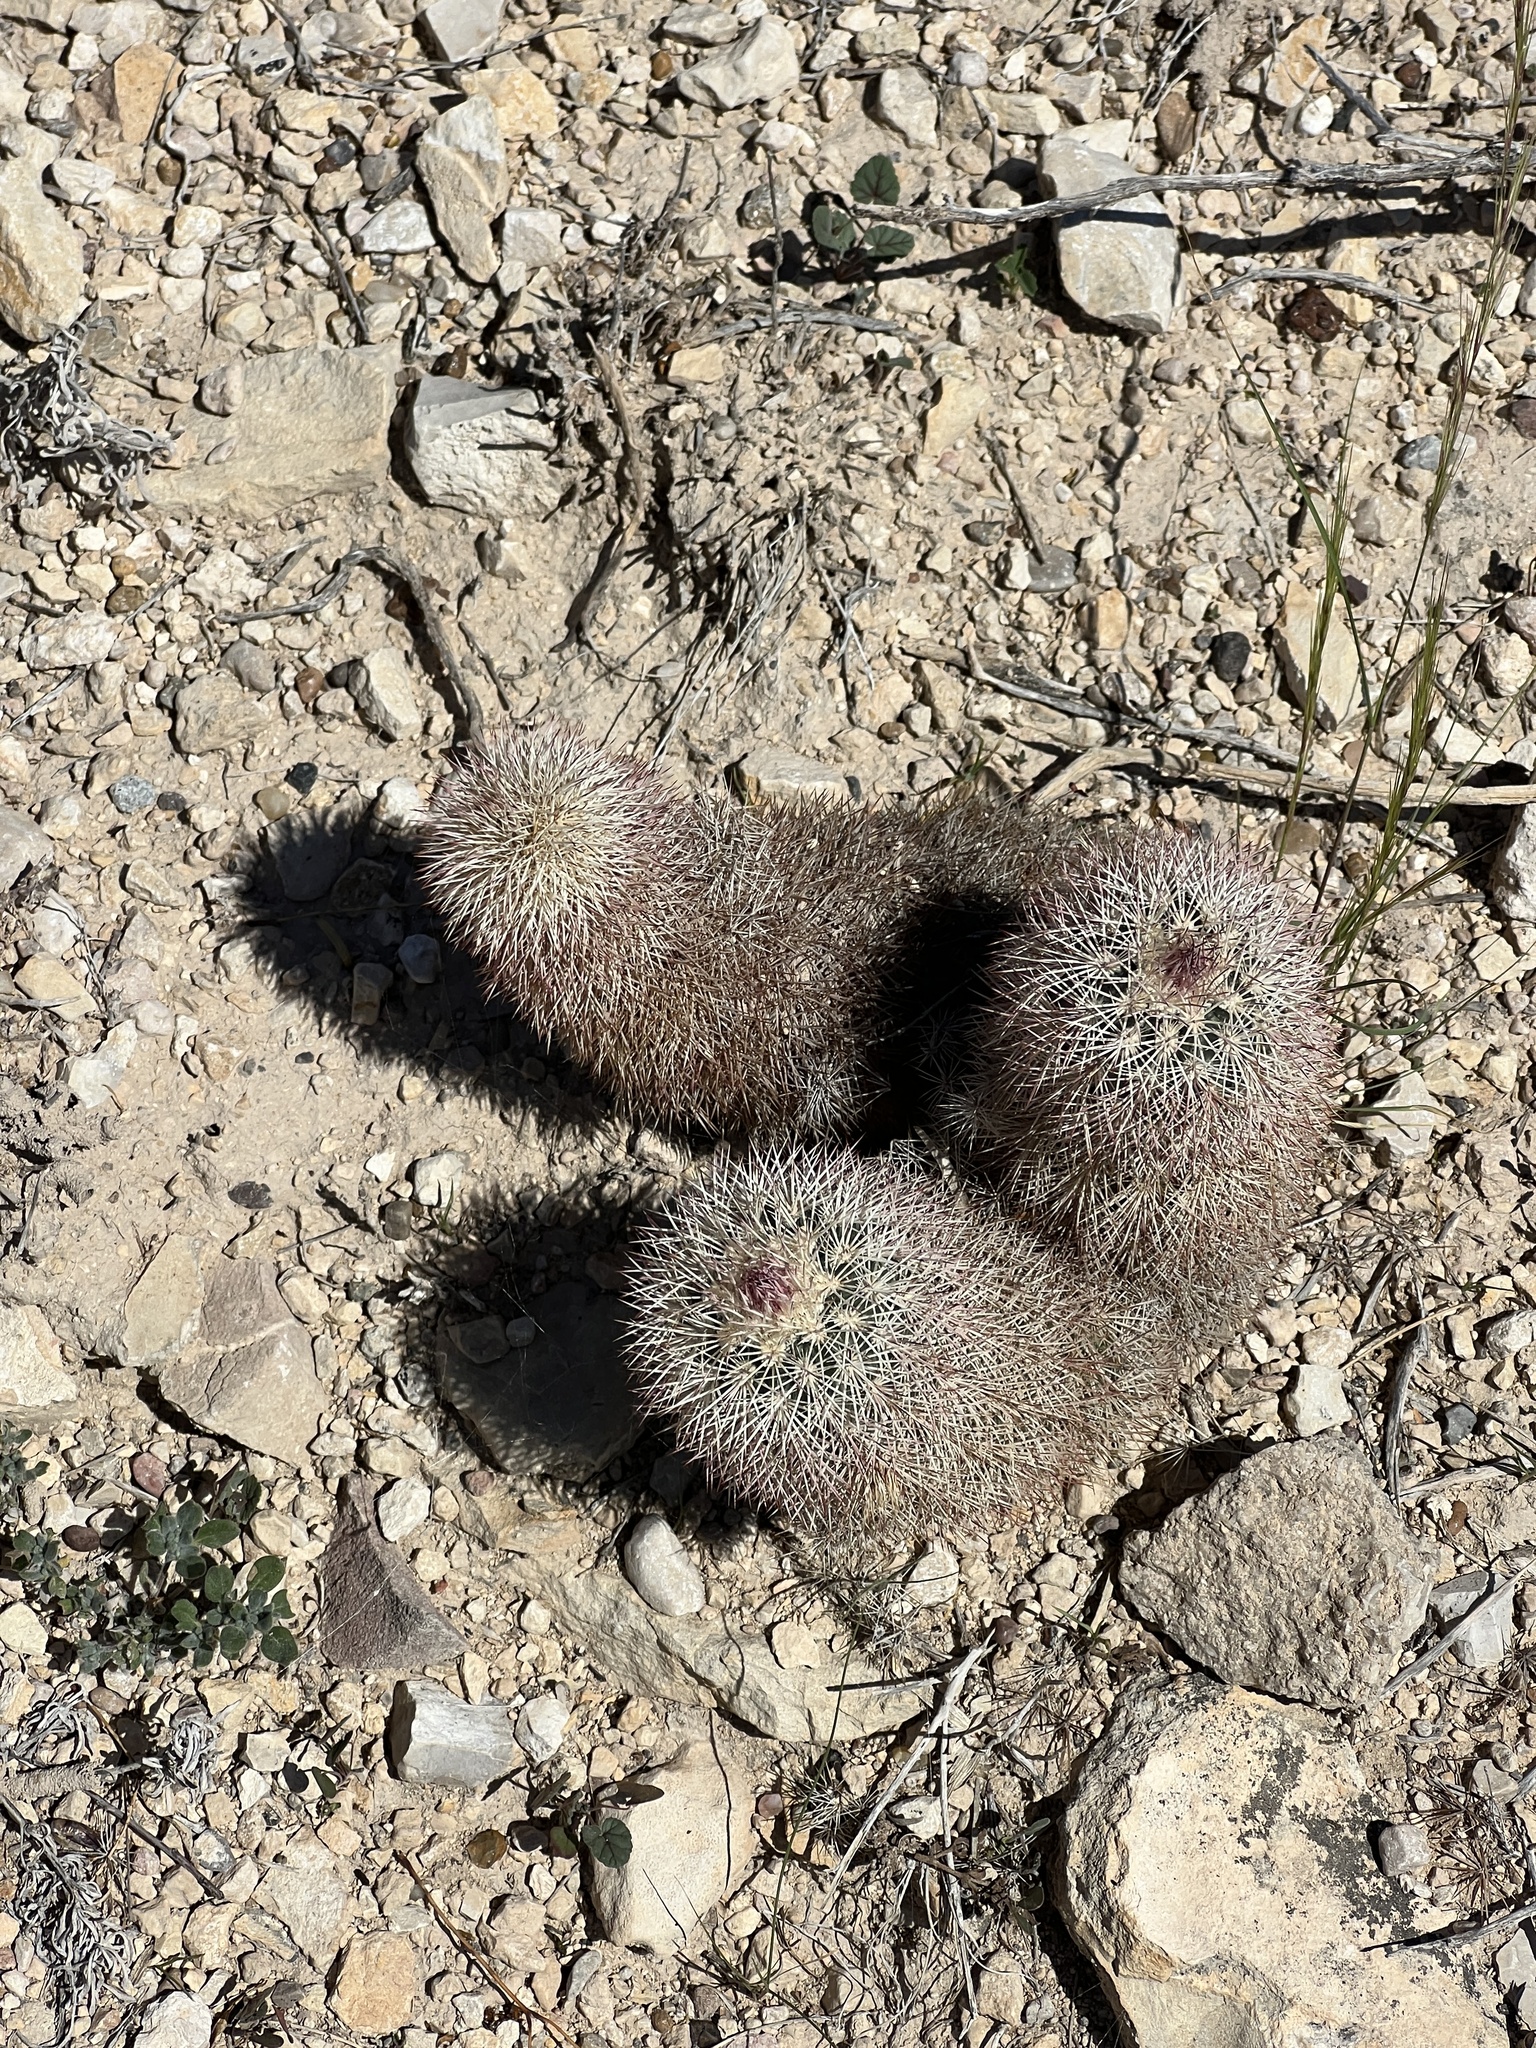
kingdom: Plantae
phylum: Tracheophyta
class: Magnoliopsida
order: Caryophyllales
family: Cactaceae
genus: Echinocereus
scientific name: Echinocereus dasyacanthus
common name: Spiny hedgehog cactus
